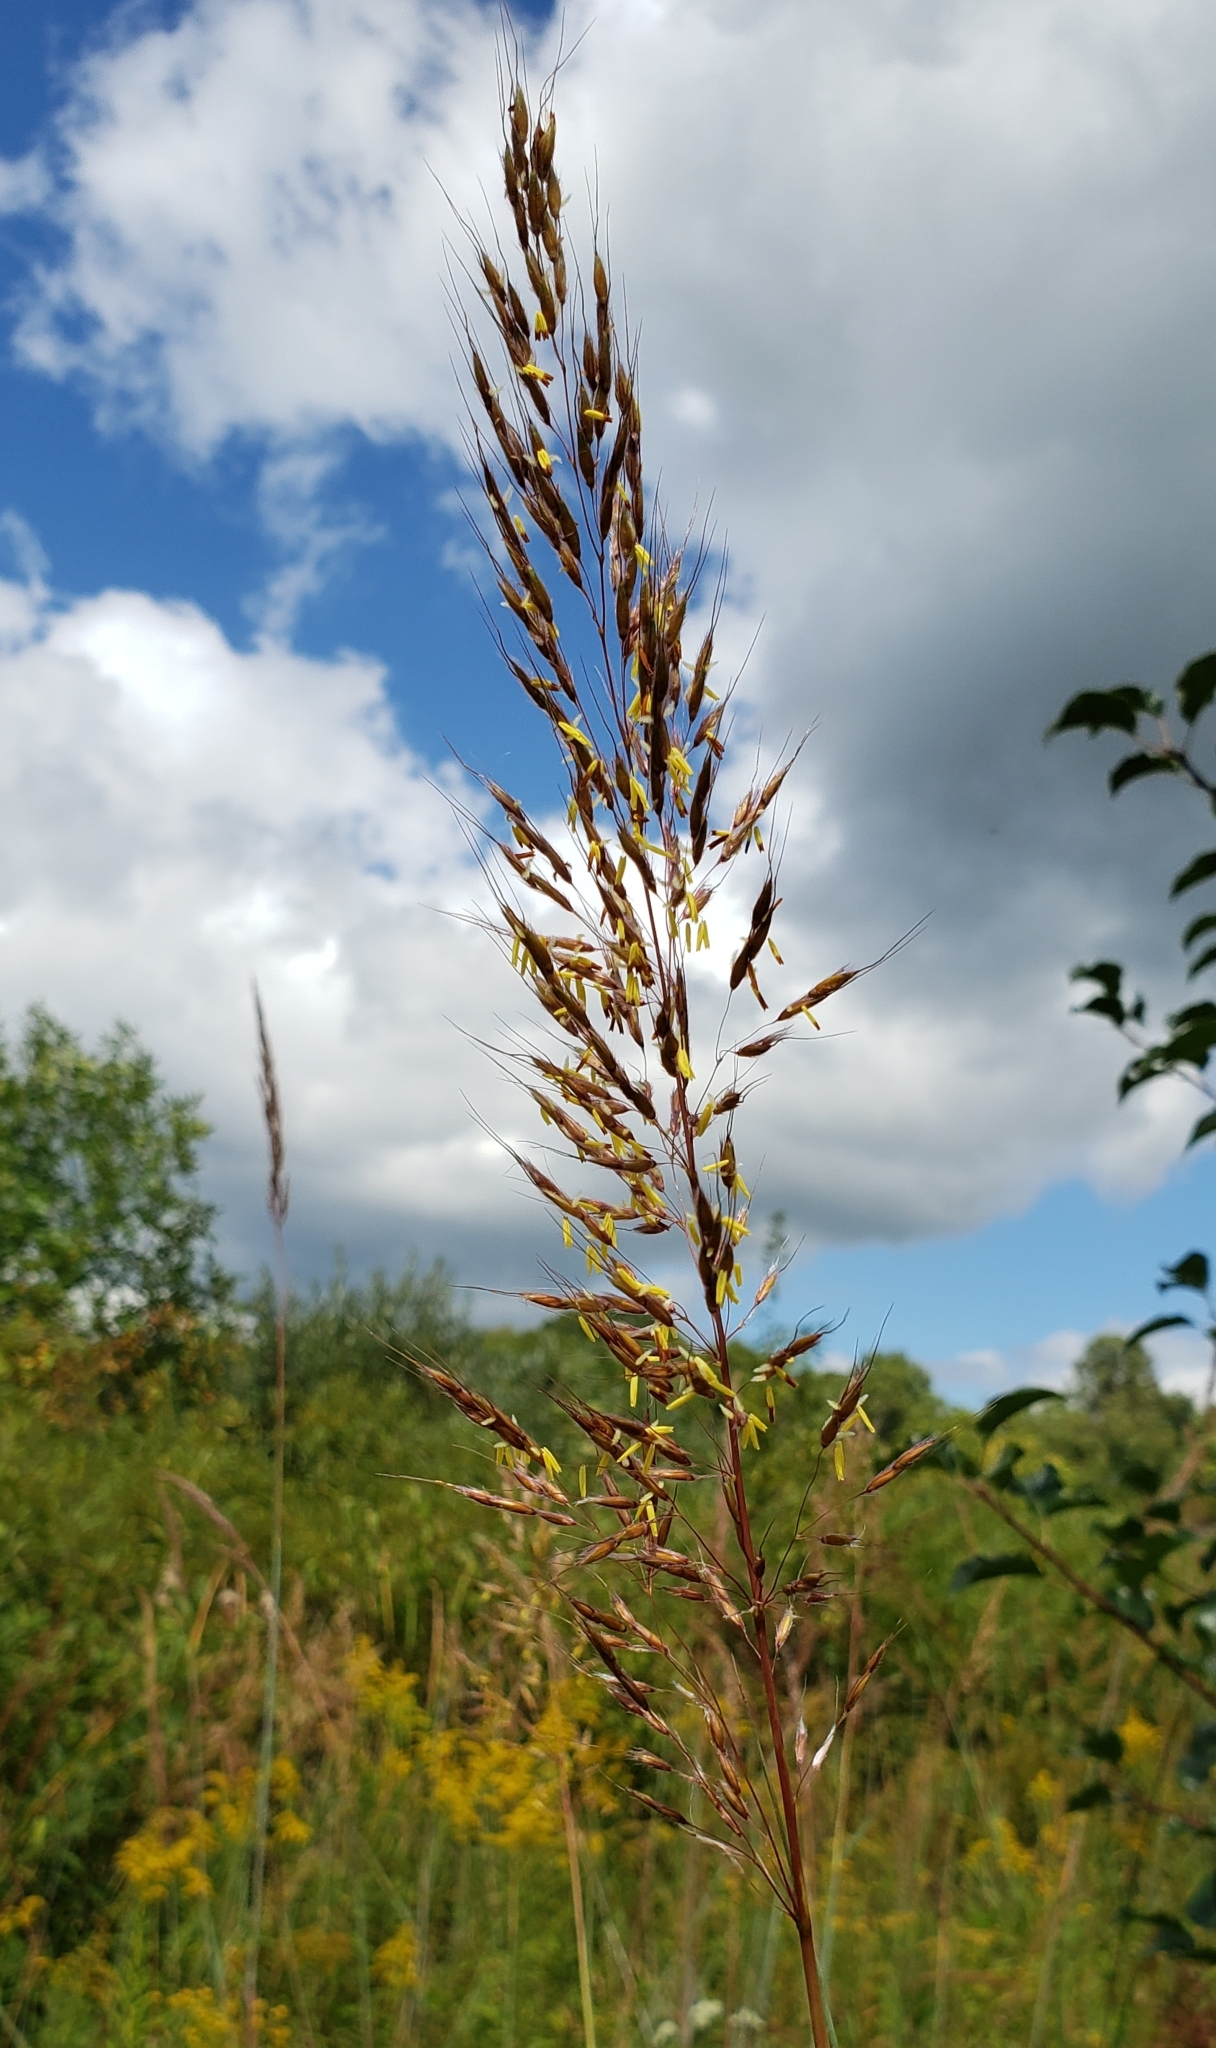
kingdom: Plantae
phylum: Tracheophyta
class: Liliopsida
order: Poales
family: Poaceae
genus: Sorghastrum
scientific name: Sorghastrum nutans
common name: Indian grass
